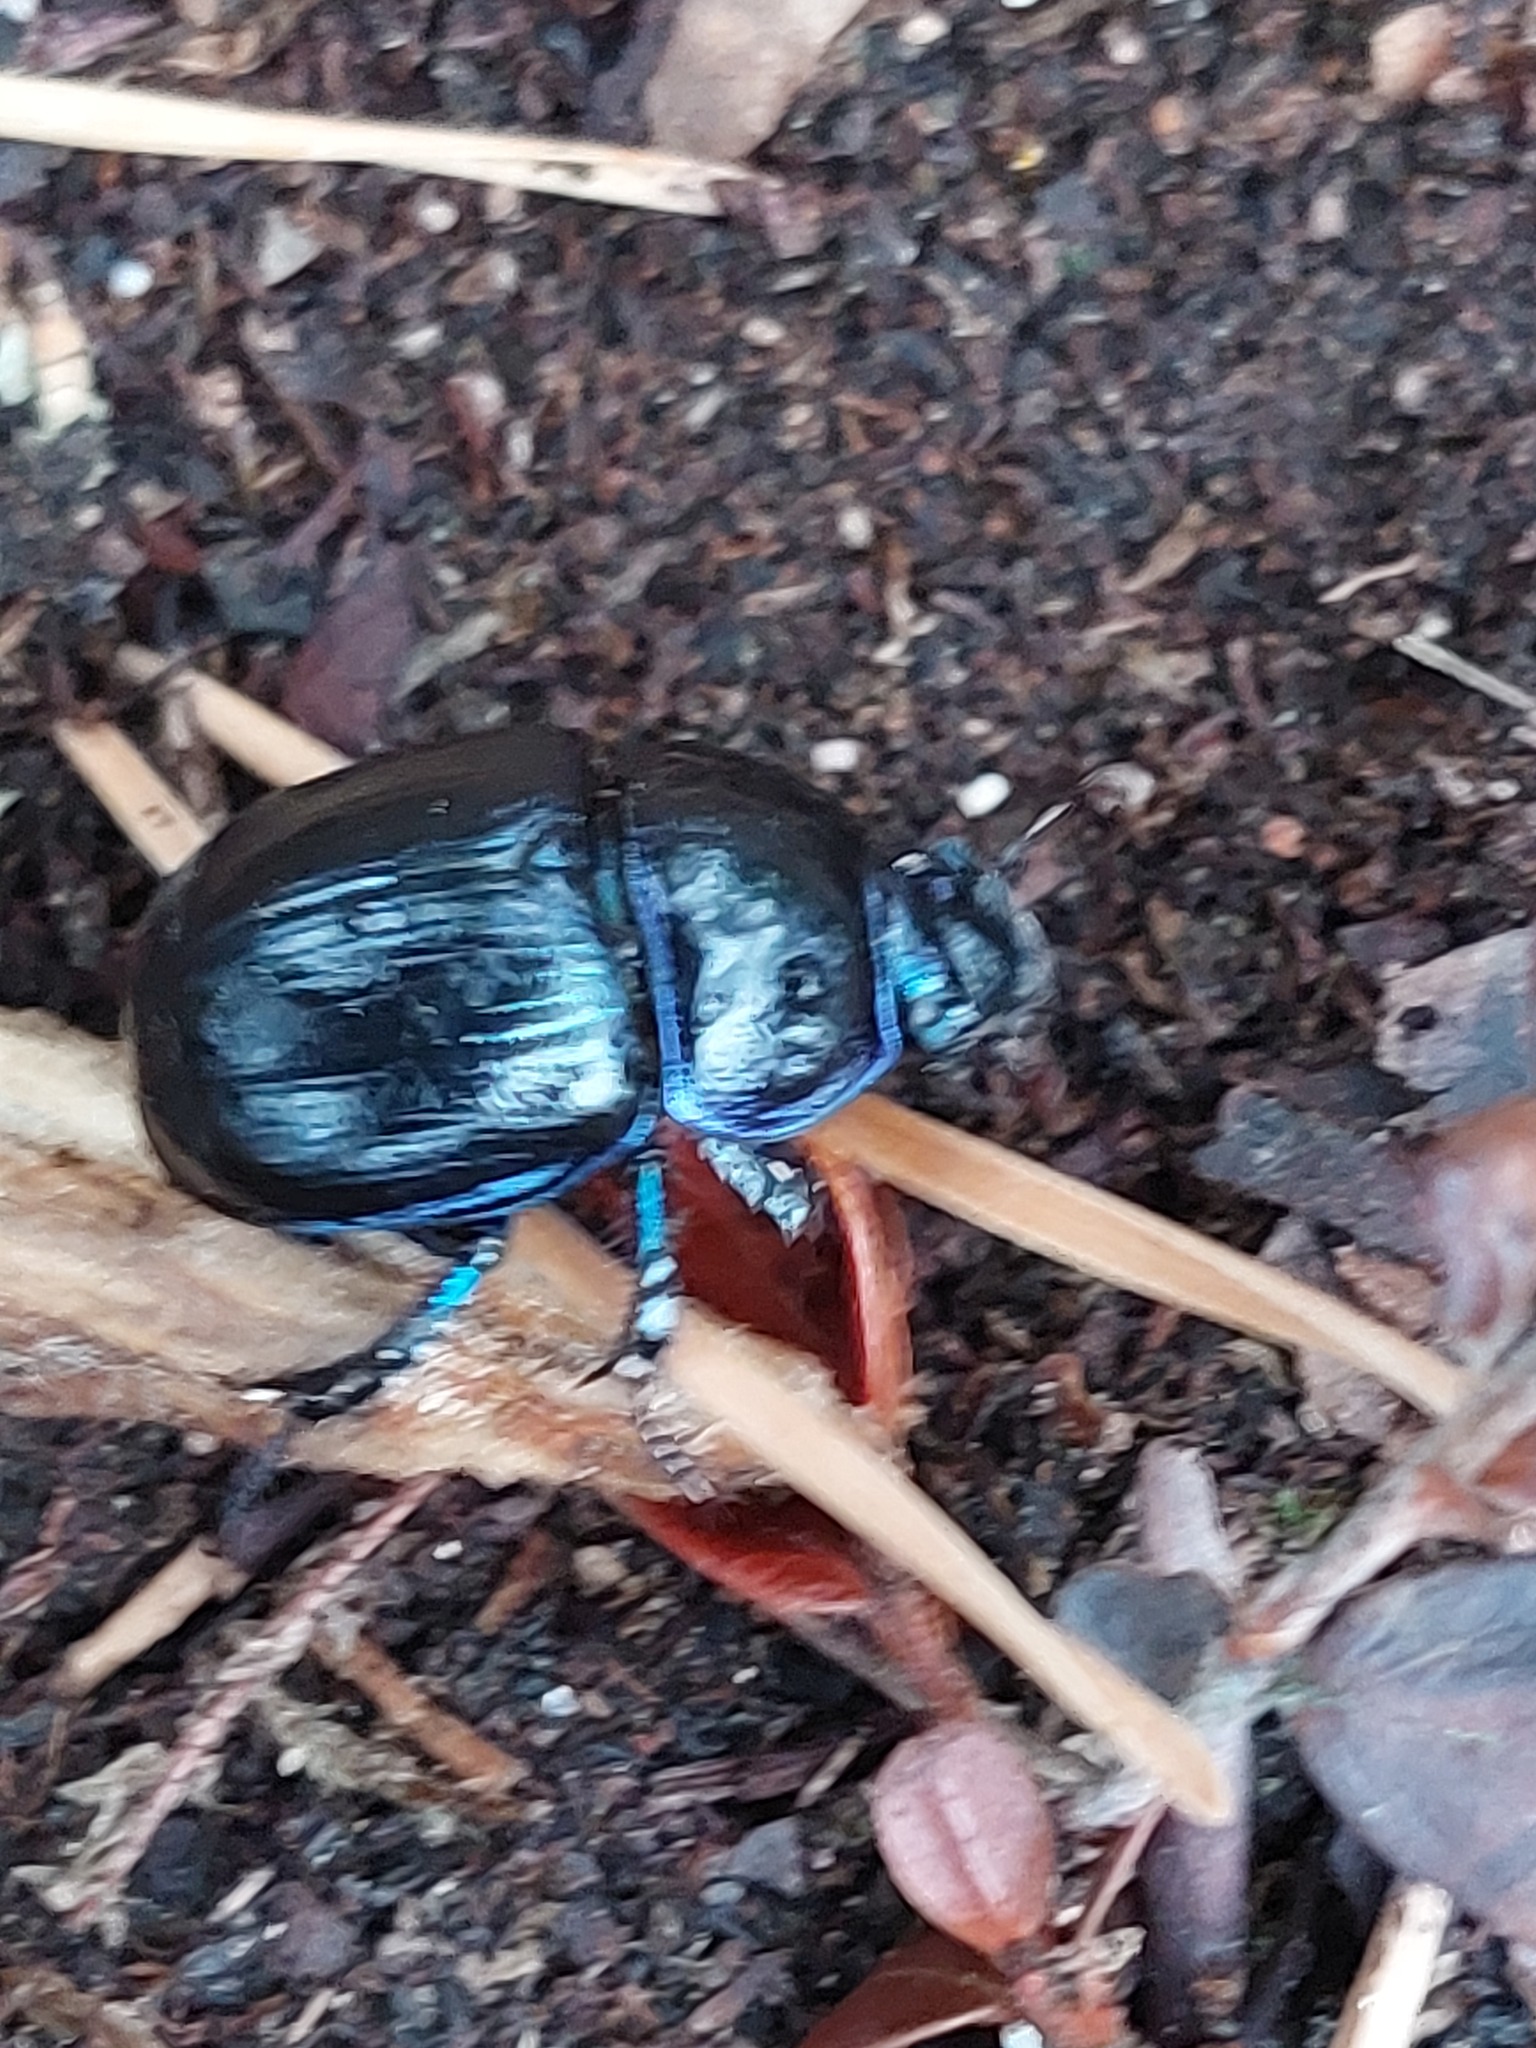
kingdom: Animalia
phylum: Arthropoda
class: Insecta
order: Coleoptera
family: Geotrupidae
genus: Anoplotrupes
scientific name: Anoplotrupes stercorosus
